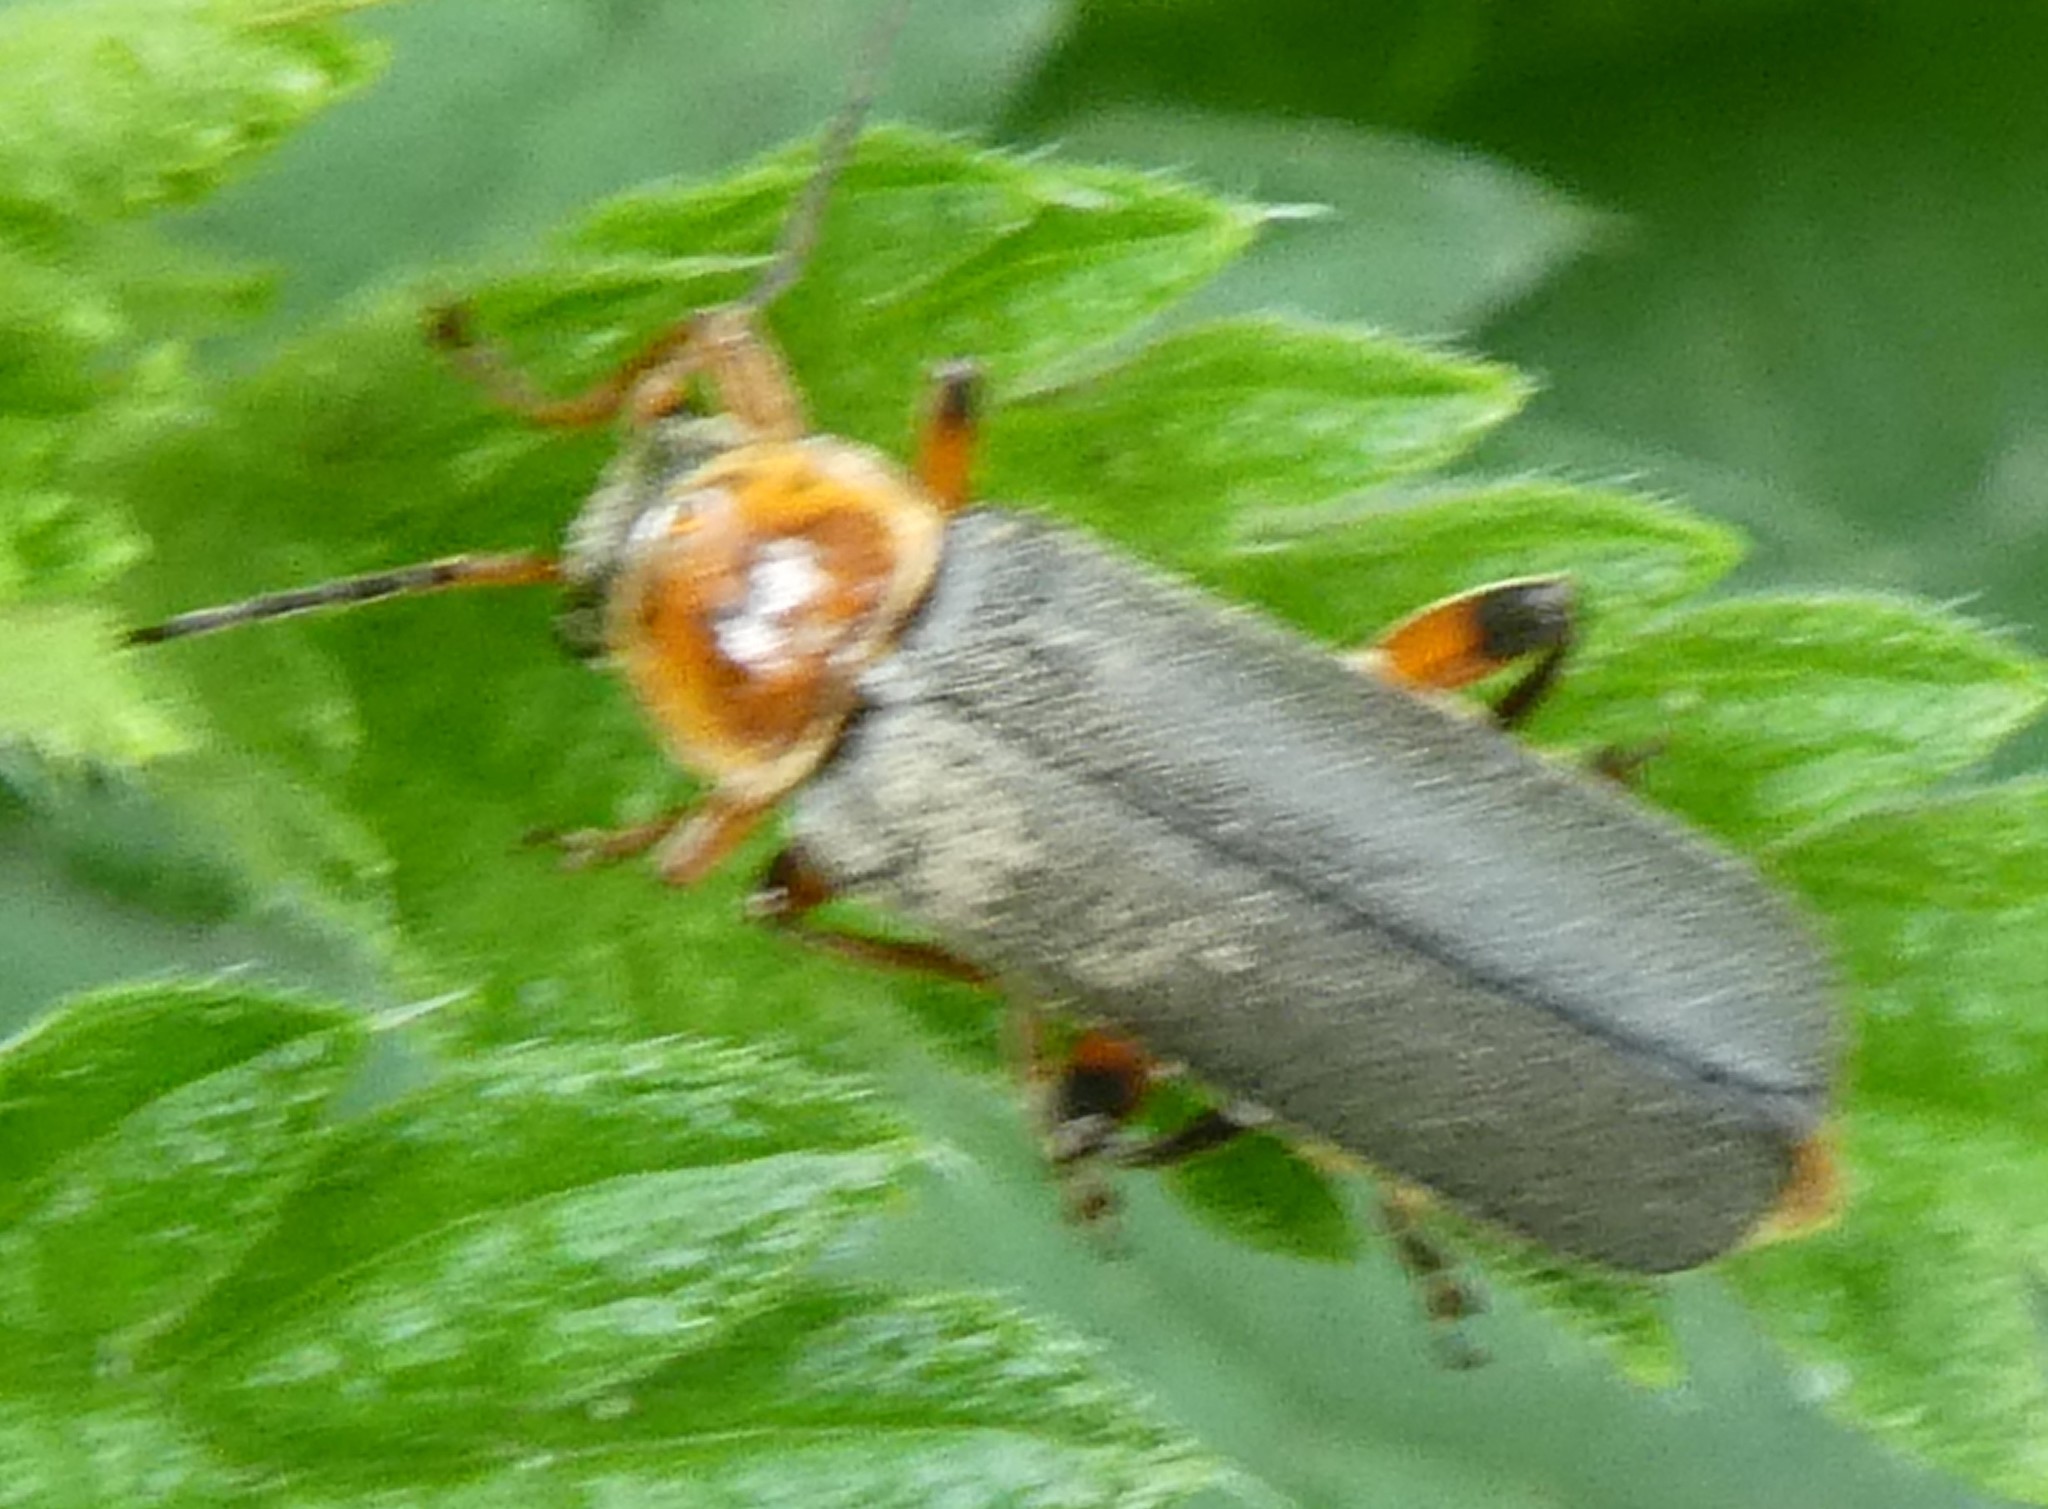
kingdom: Animalia
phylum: Arthropoda
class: Insecta
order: Coleoptera
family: Cantharidae
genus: Cantharis
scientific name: Cantharis nigricans
